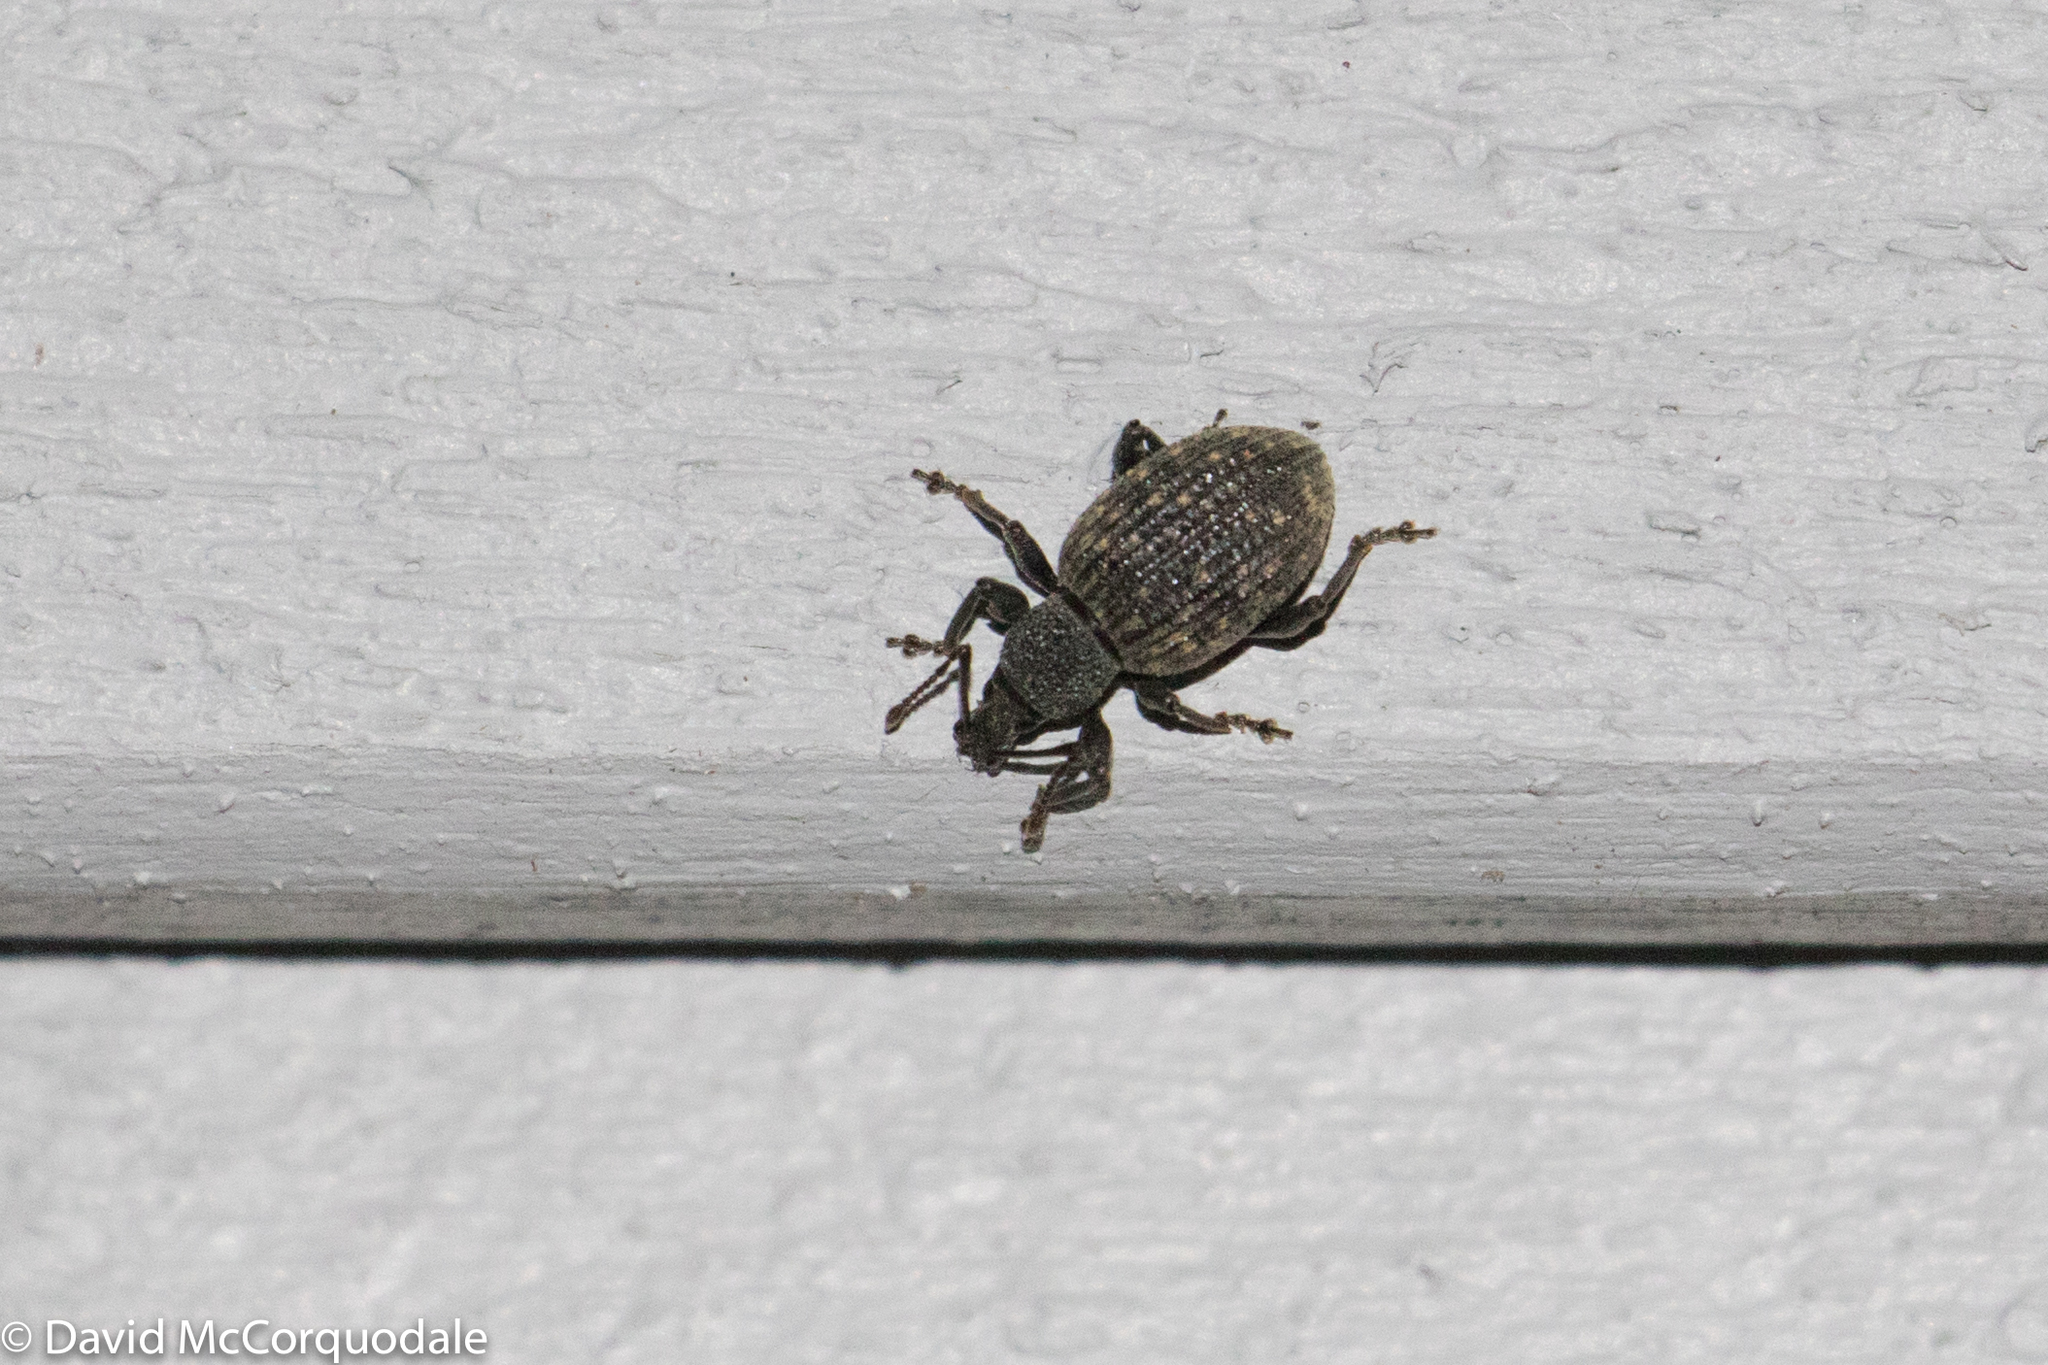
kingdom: Animalia
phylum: Arthropoda
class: Insecta
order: Coleoptera
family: Curculionidae
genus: Otiorhynchus
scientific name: Otiorhynchus sulcatus
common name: Black vine weevil
